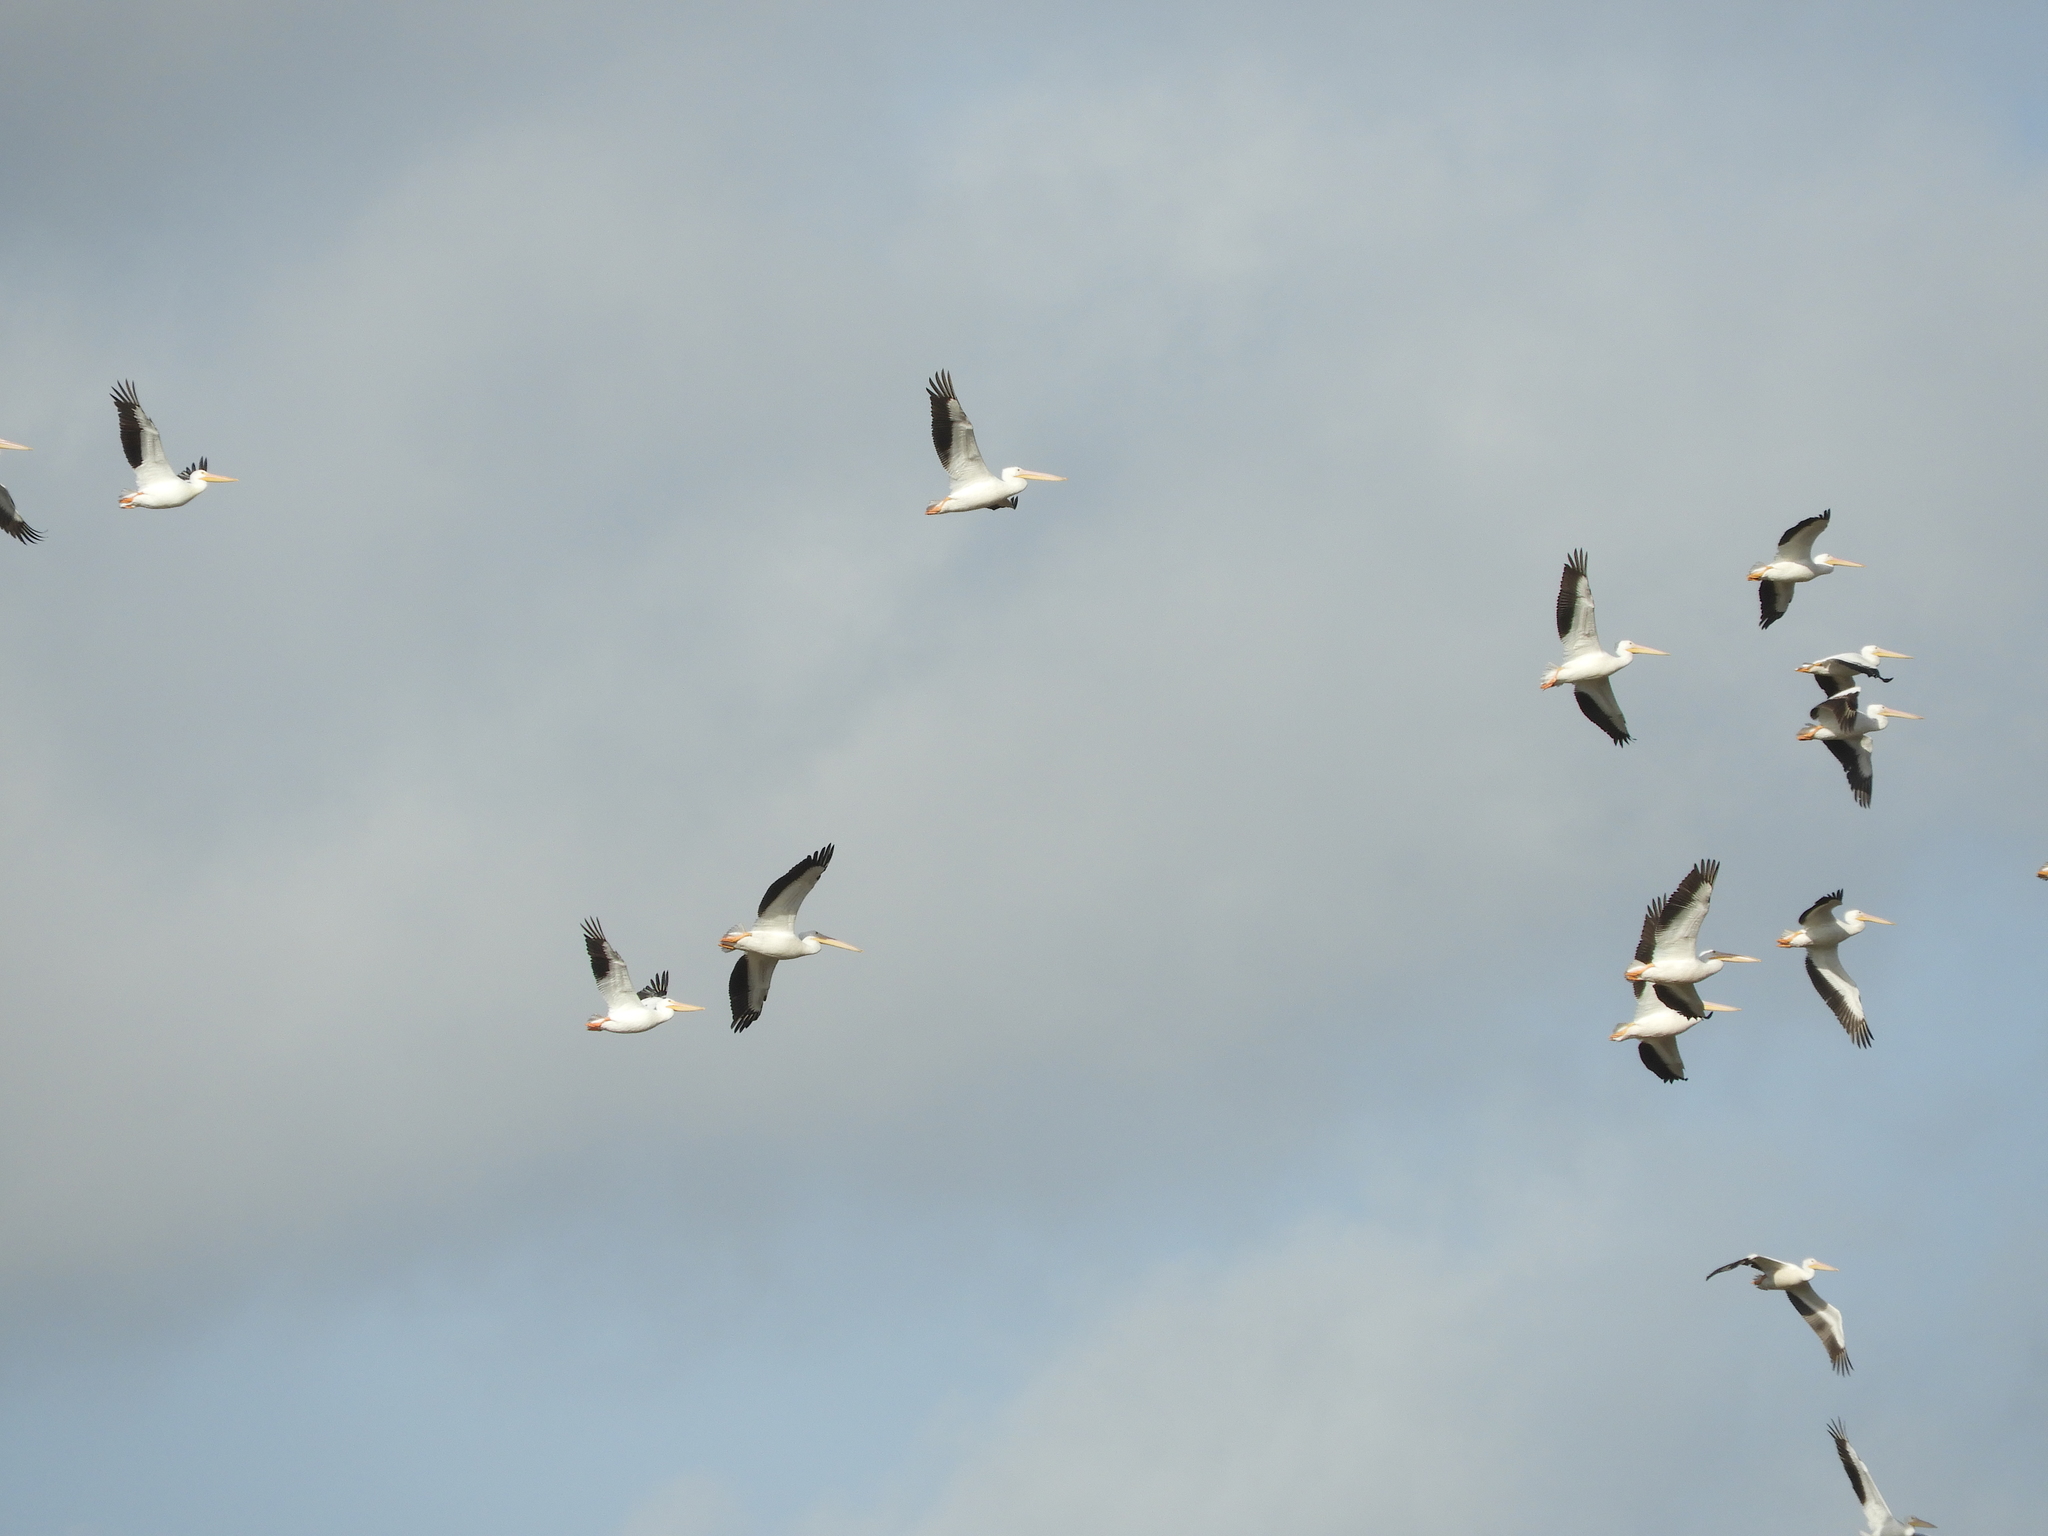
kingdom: Animalia
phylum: Chordata
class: Aves
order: Pelecaniformes
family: Pelecanidae
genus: Pelecanus
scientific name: Pelecanus erythrorhynchos
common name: American white pelican
